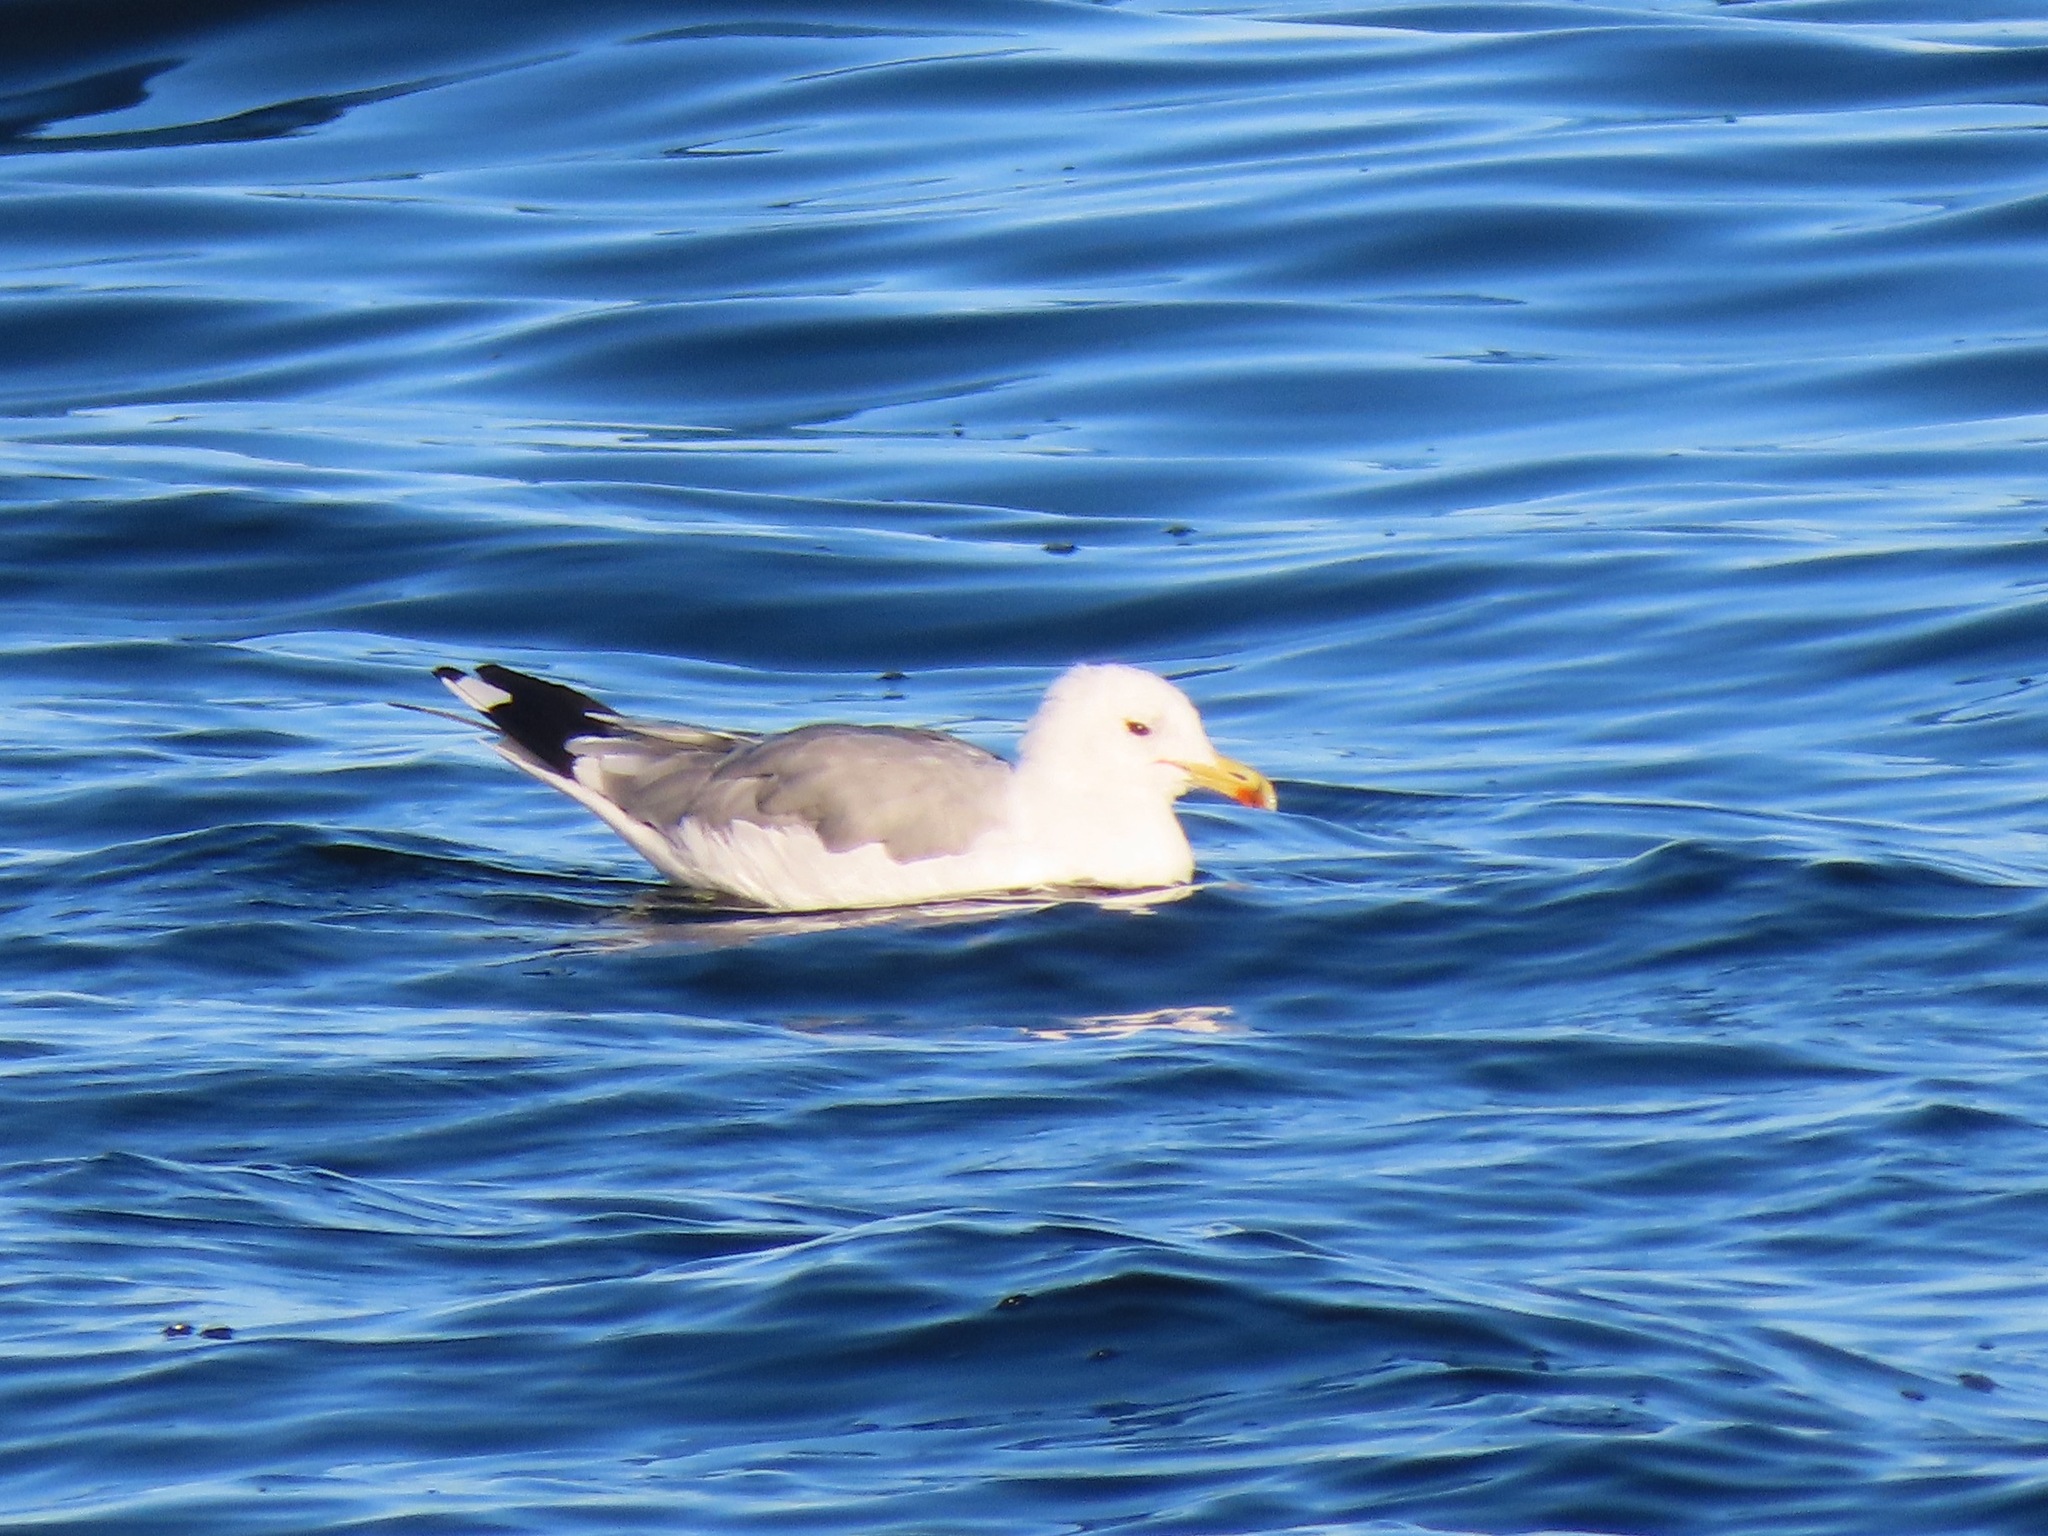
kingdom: Animalia
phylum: Chordata
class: Aves
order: Charadriiformes
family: Laridae
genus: Larus
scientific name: Larus californicus
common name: California gull
